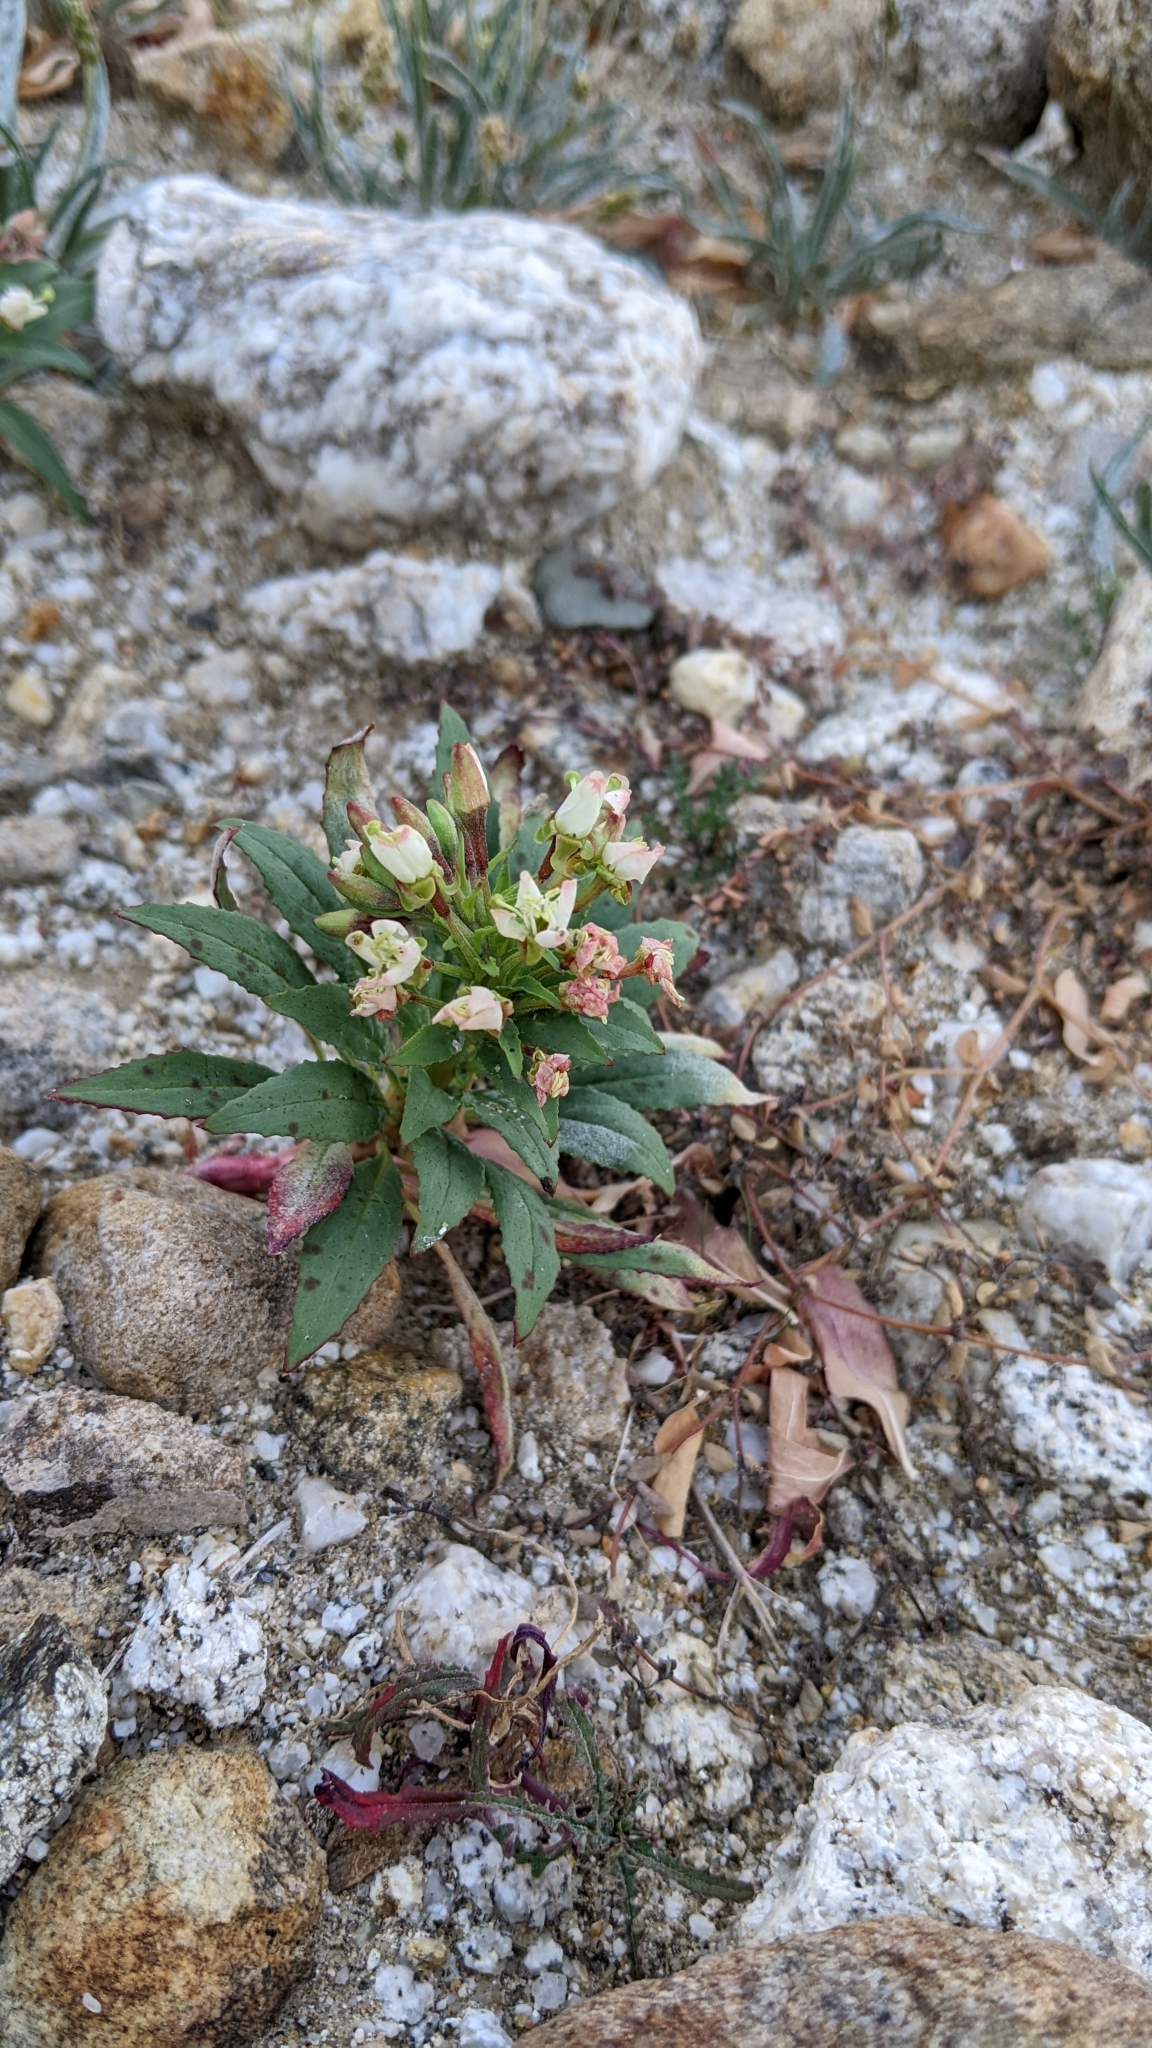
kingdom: Plantae
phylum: Tracheophyta
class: Magnoliopsida
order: Myrtales
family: Onagraceae
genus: Eremothera
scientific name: Eremothera boothii
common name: Booth's evening primrose
